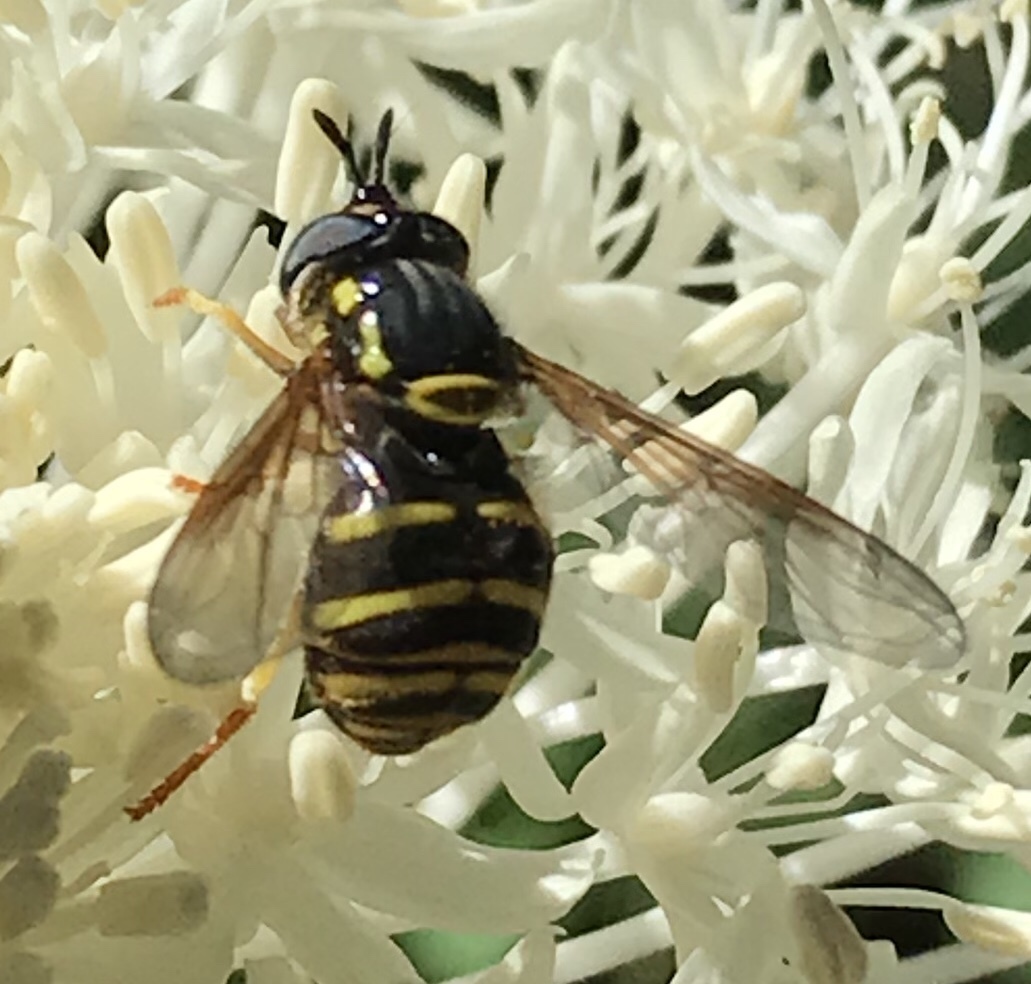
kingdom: Animalia
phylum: Arthropoda
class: Insecta
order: Diptera
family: Syrphidae
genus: Chrysotoxum
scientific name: Chrysotoxum
